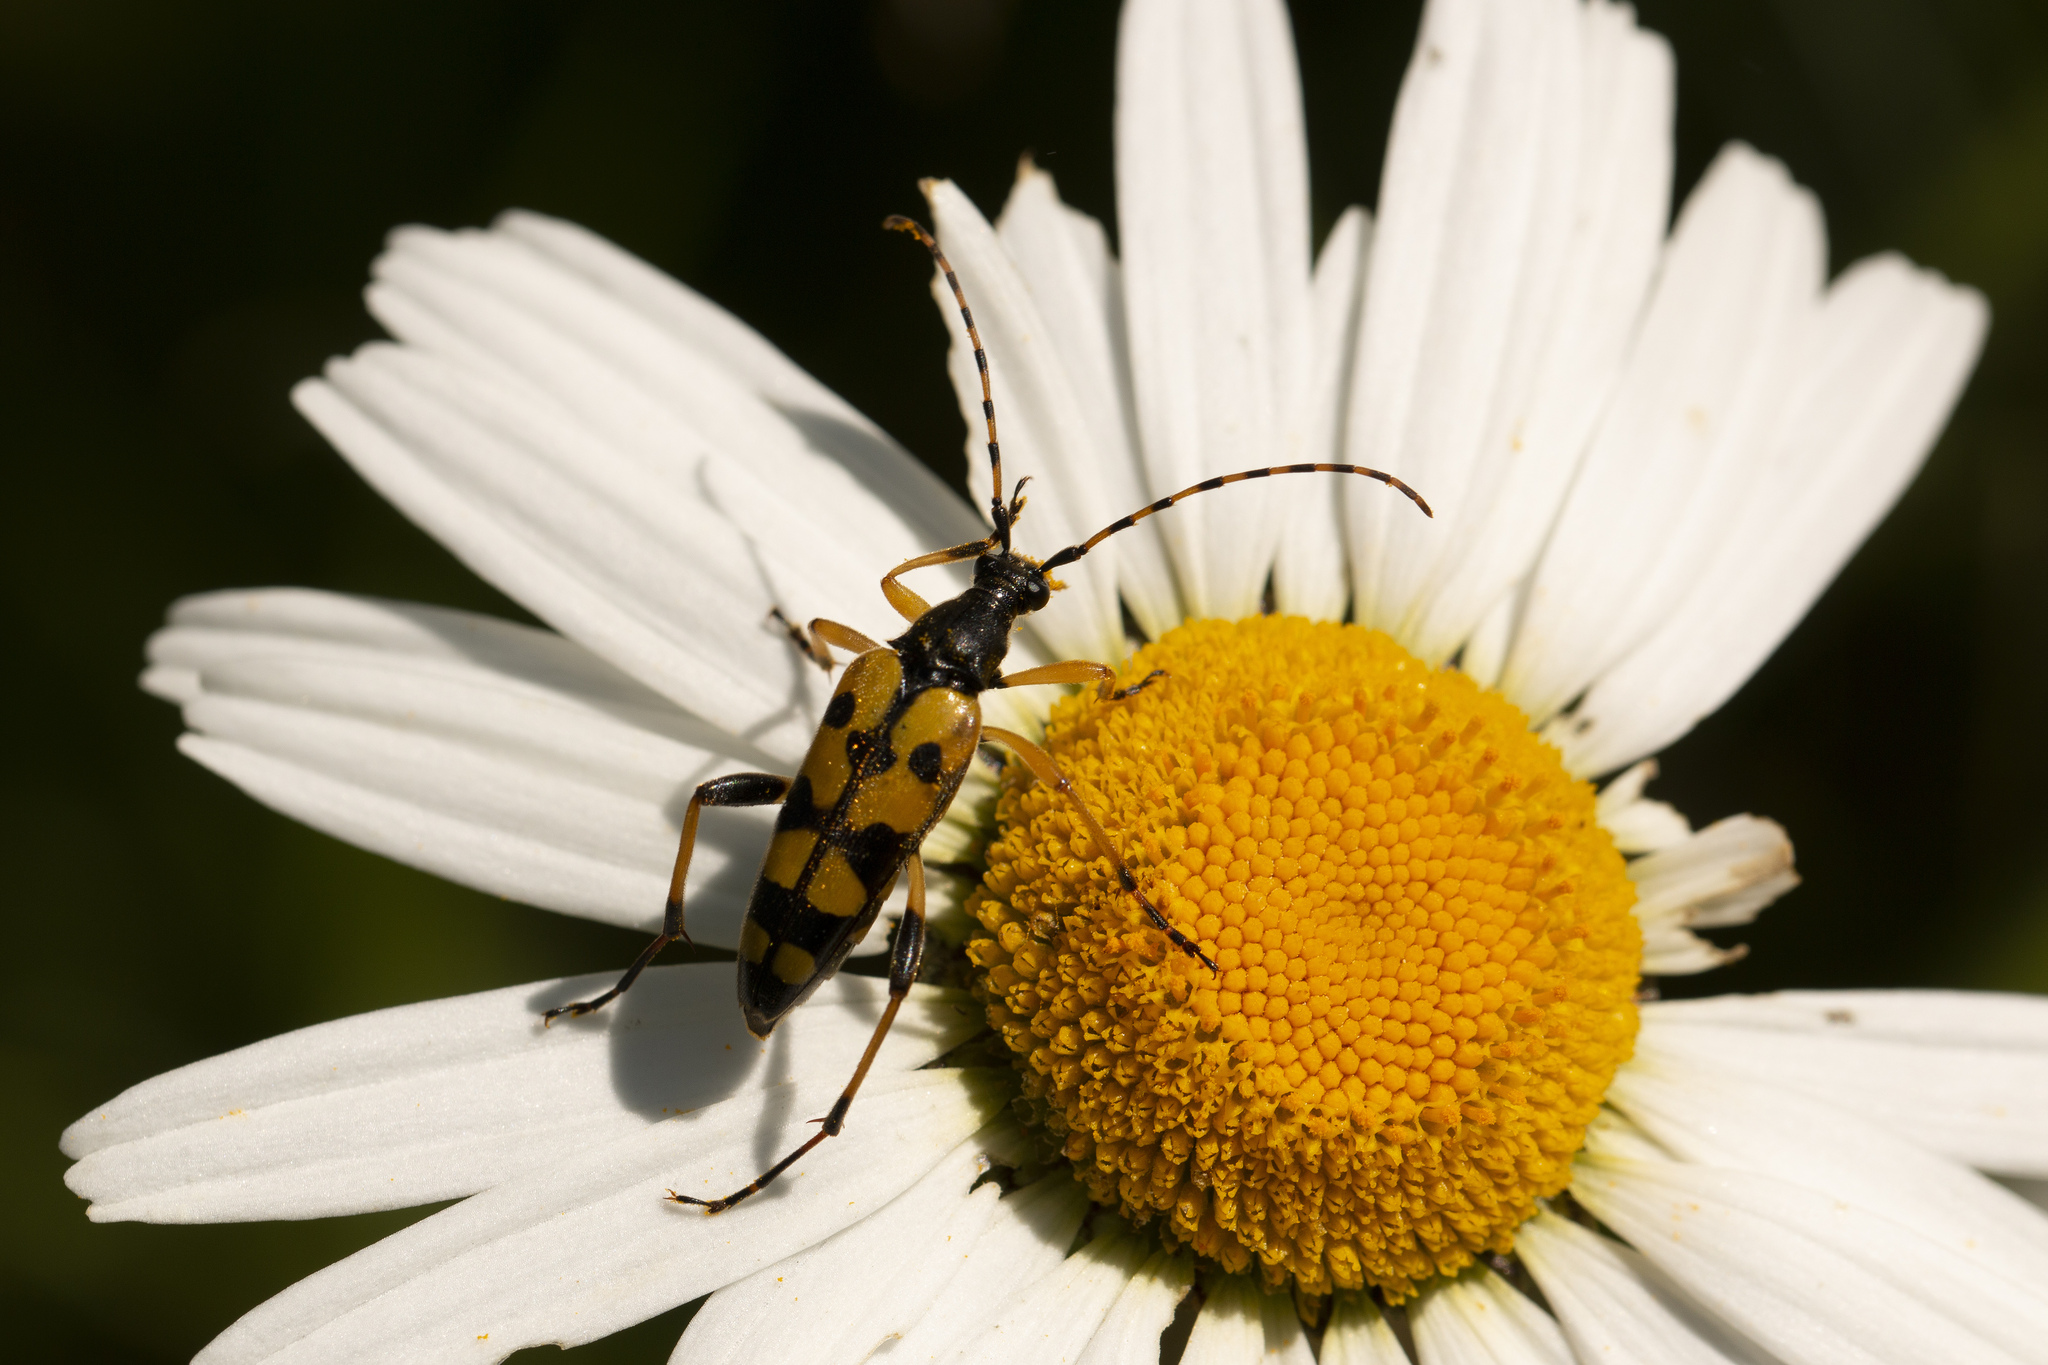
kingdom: Animalia
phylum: Arthropoda
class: Insecta
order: Coleoptera
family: Cerambycidae
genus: Rutpela
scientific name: Rutpela maculata
